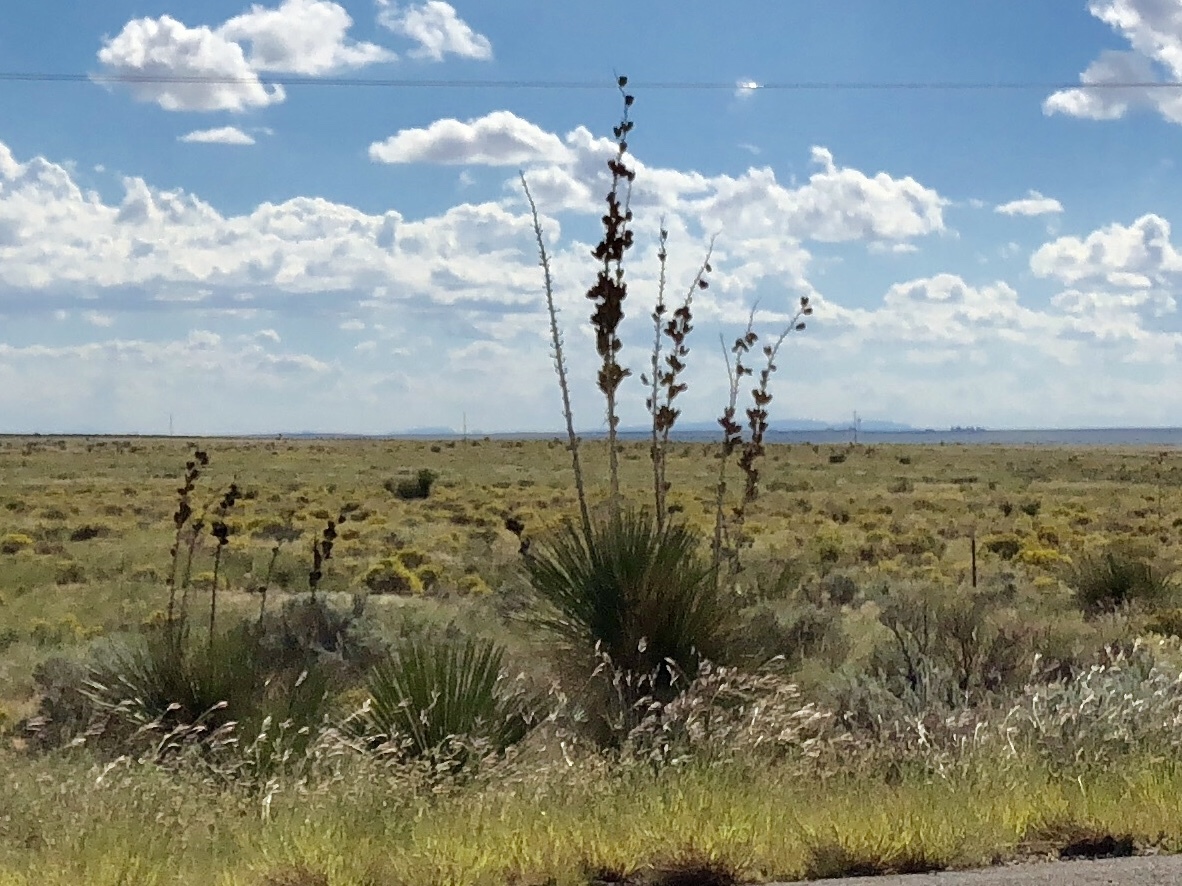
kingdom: Plantae
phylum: Tracheophyta
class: Liliopsida
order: Asparagales
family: Asparagaceae
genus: Yucca
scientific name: Yucca elata
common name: Palmella
